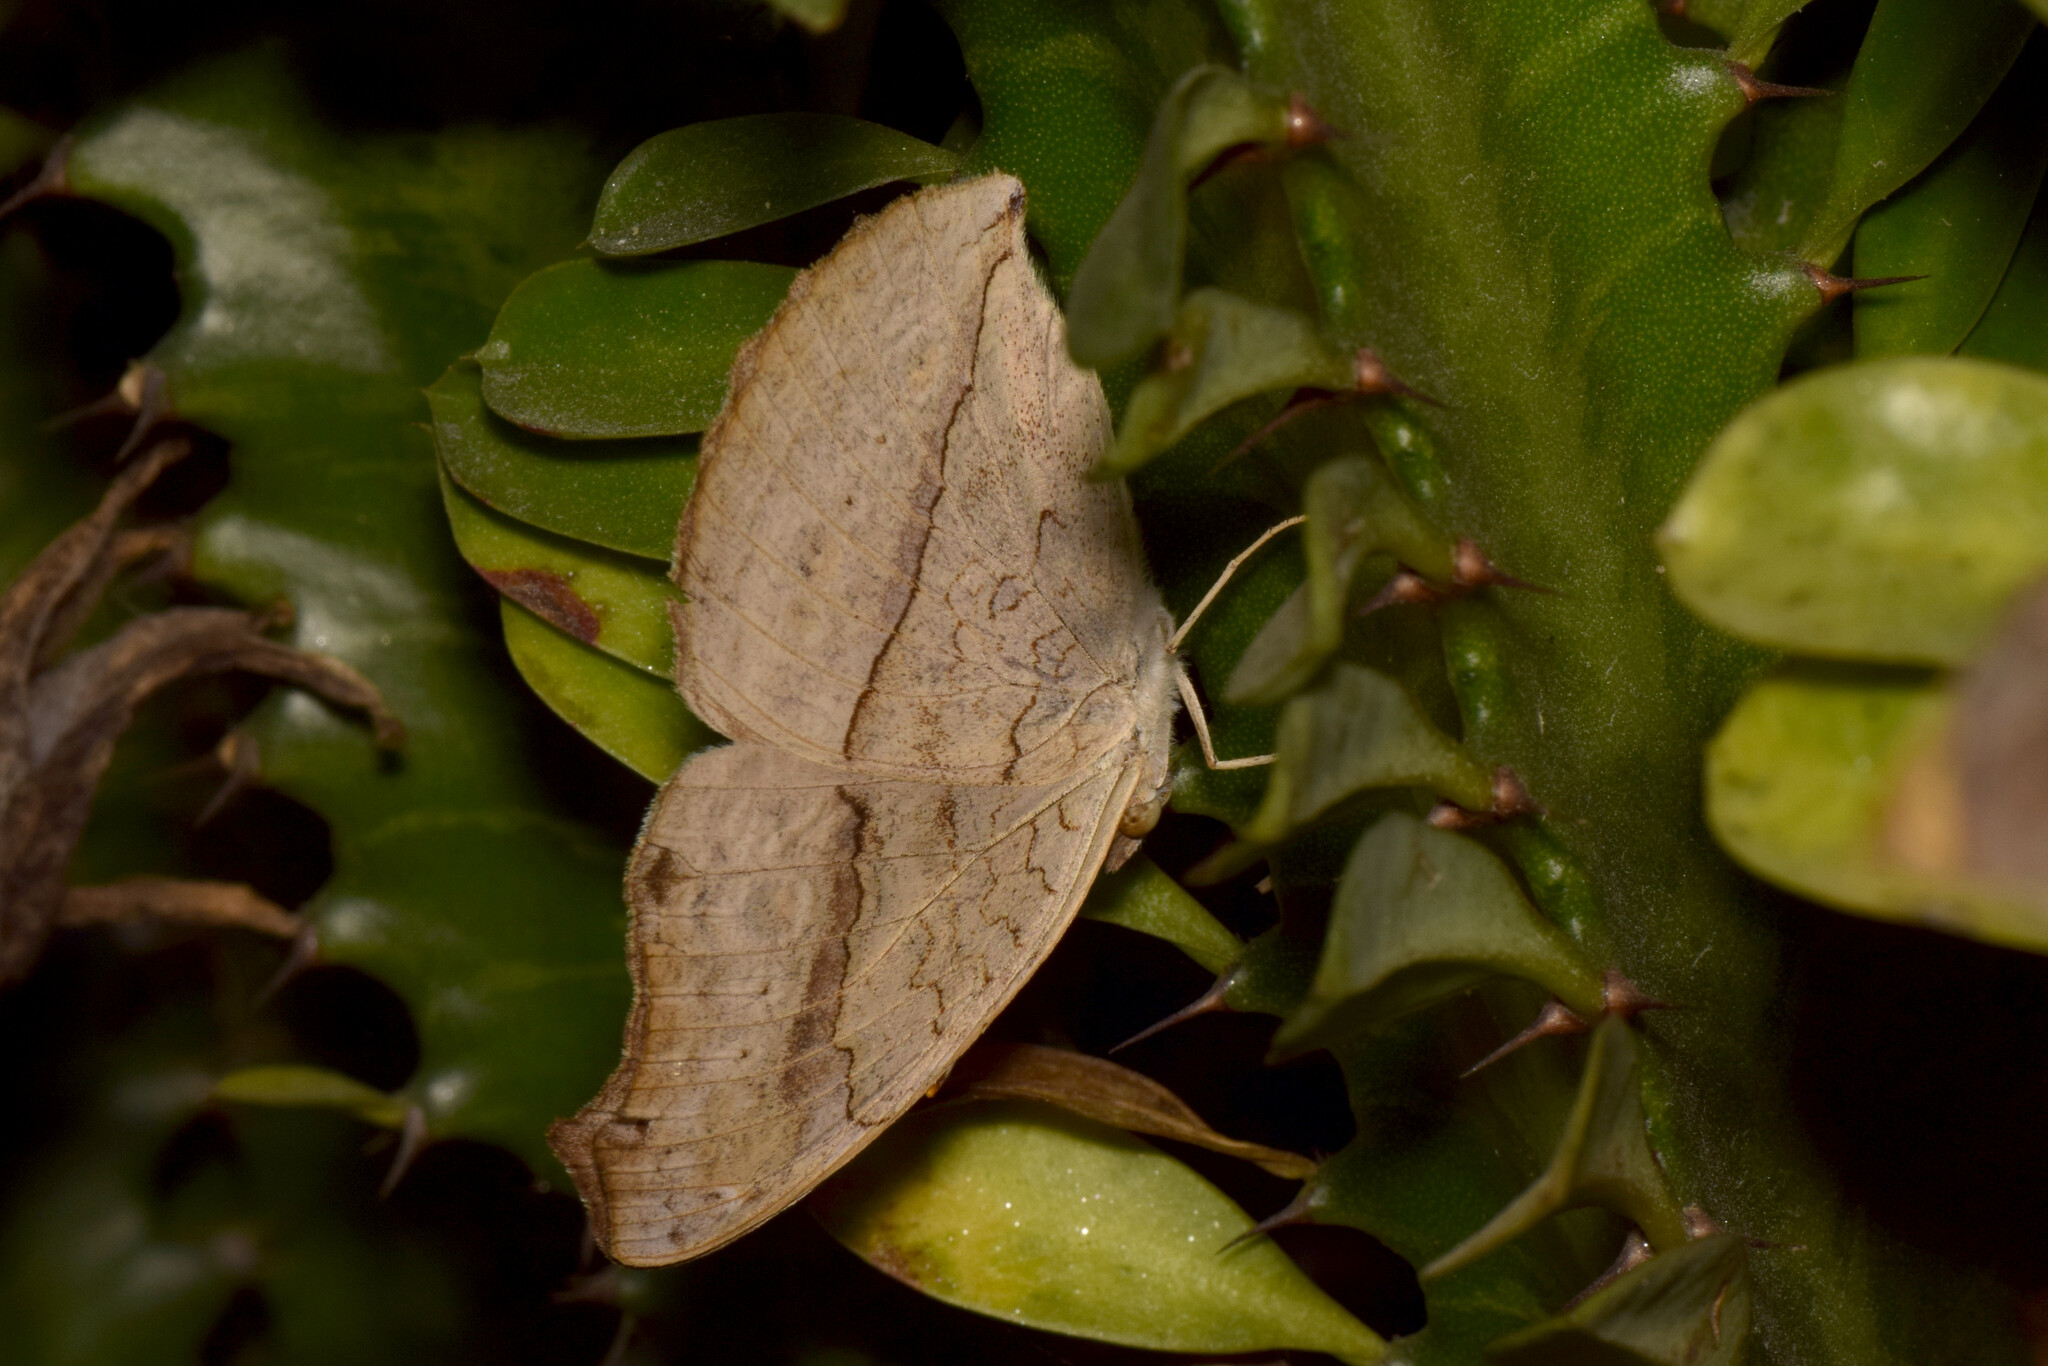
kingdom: Animalia
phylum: Arthropoda
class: Insecta
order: Lepidoptera
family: Nymphalidae
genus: Junonia
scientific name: Junonia atlites
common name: Grey pansy
